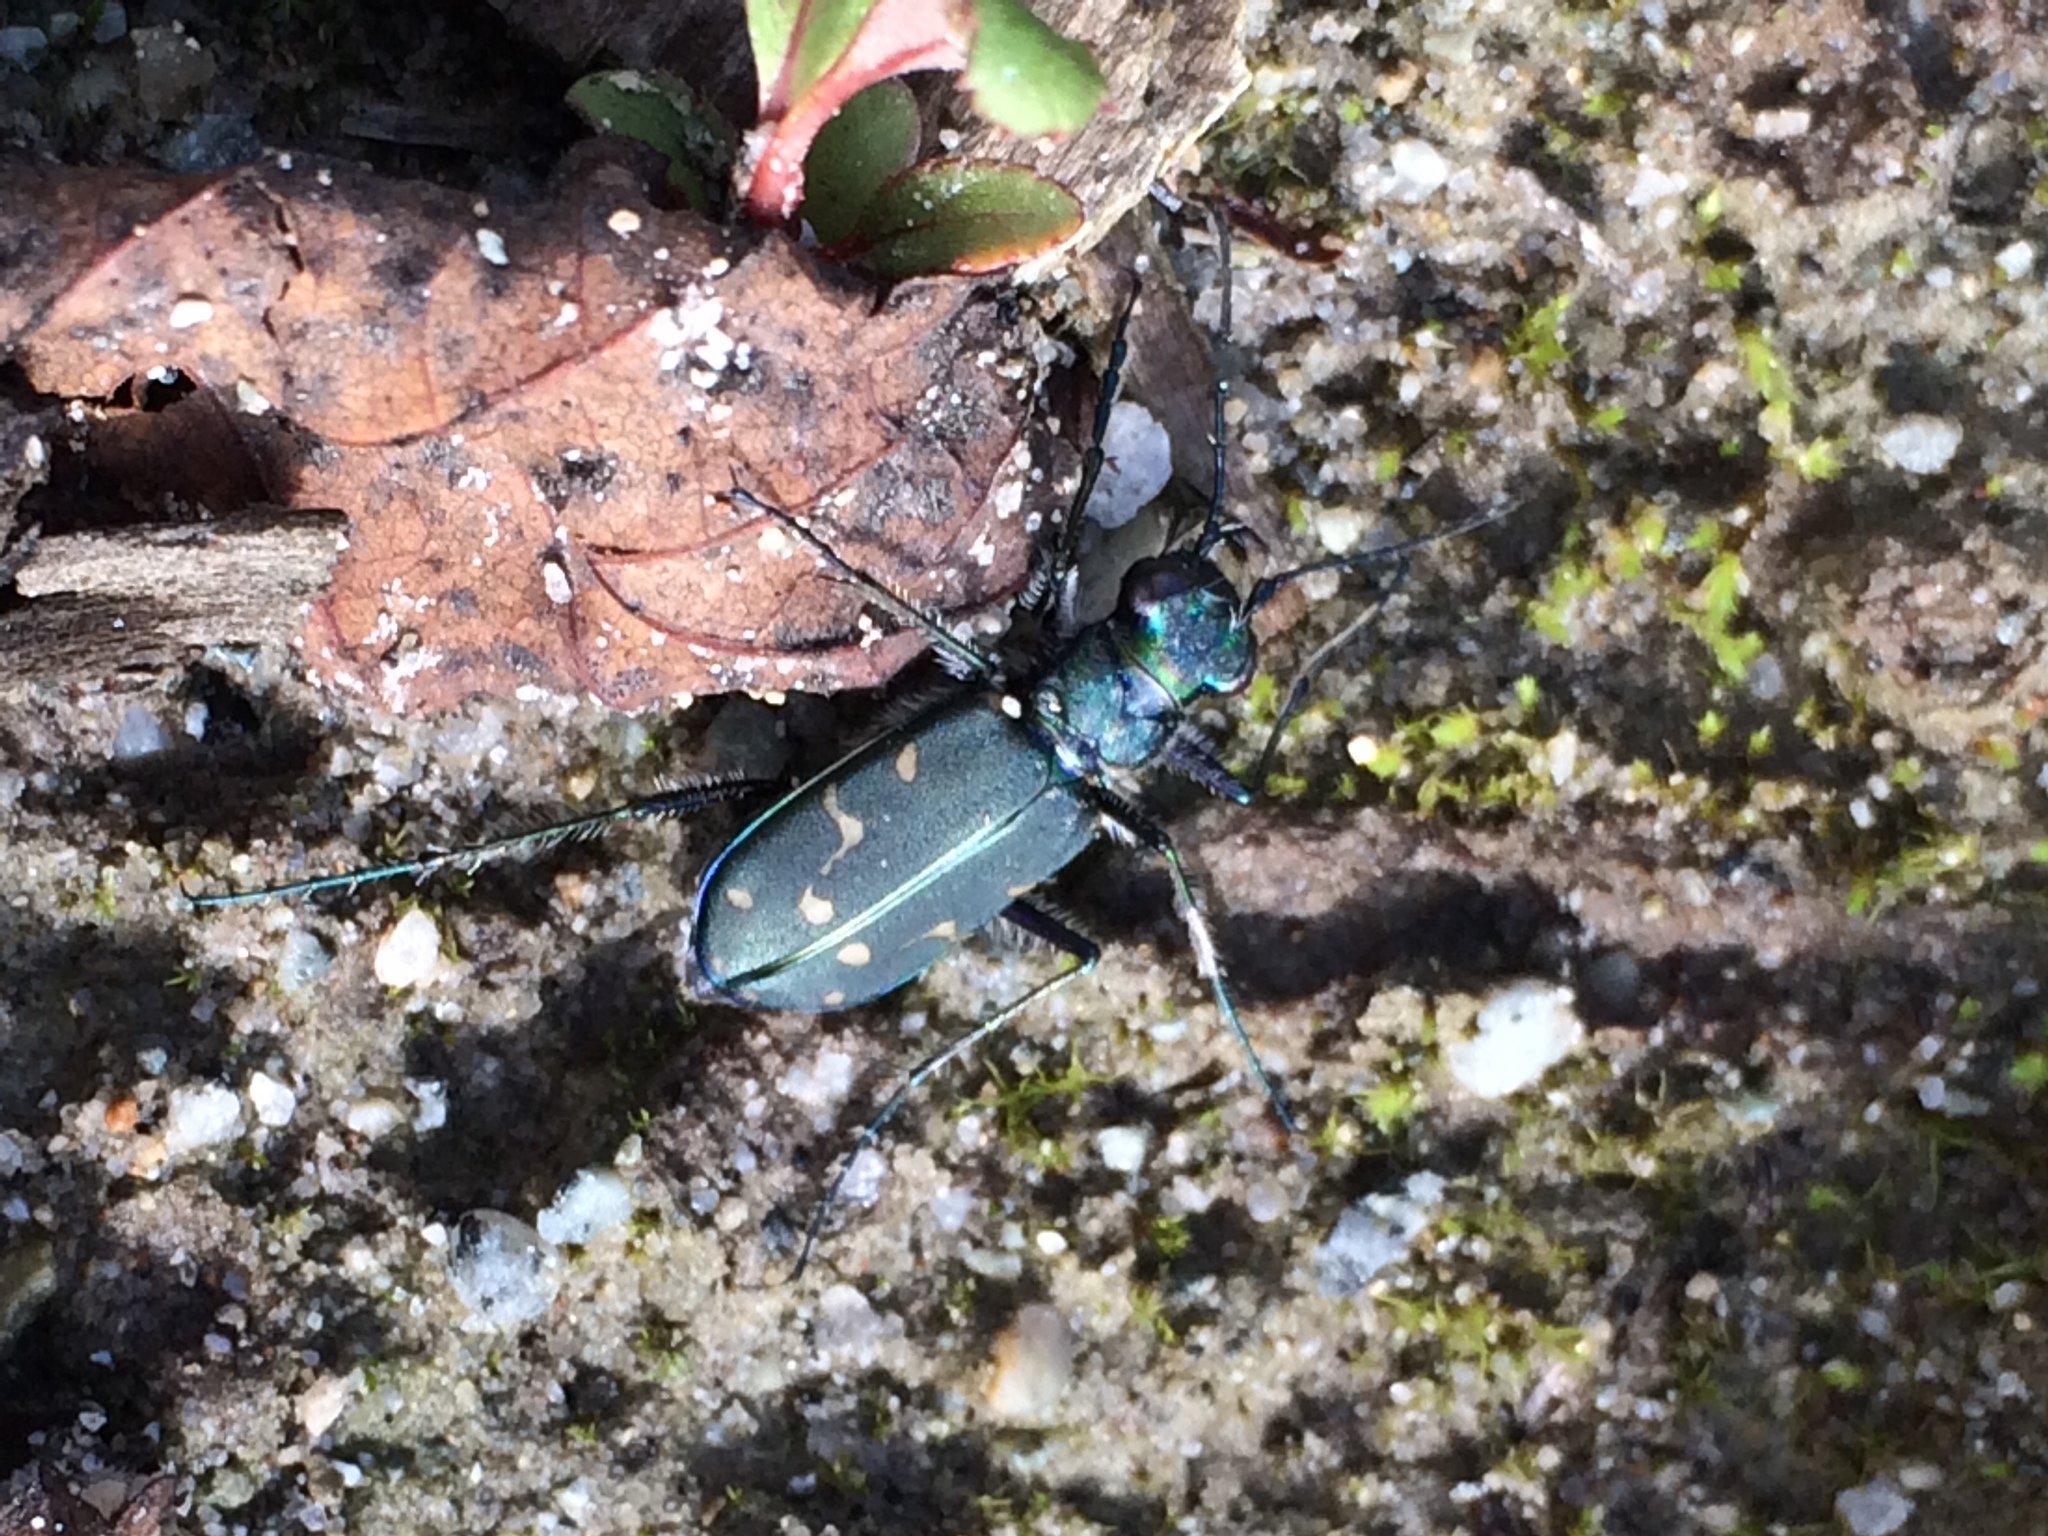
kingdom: Animalia
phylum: Arthropoda
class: Insecta
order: Coleoptera
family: Carabidae
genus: Cicindela
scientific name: Cicindela oregona
